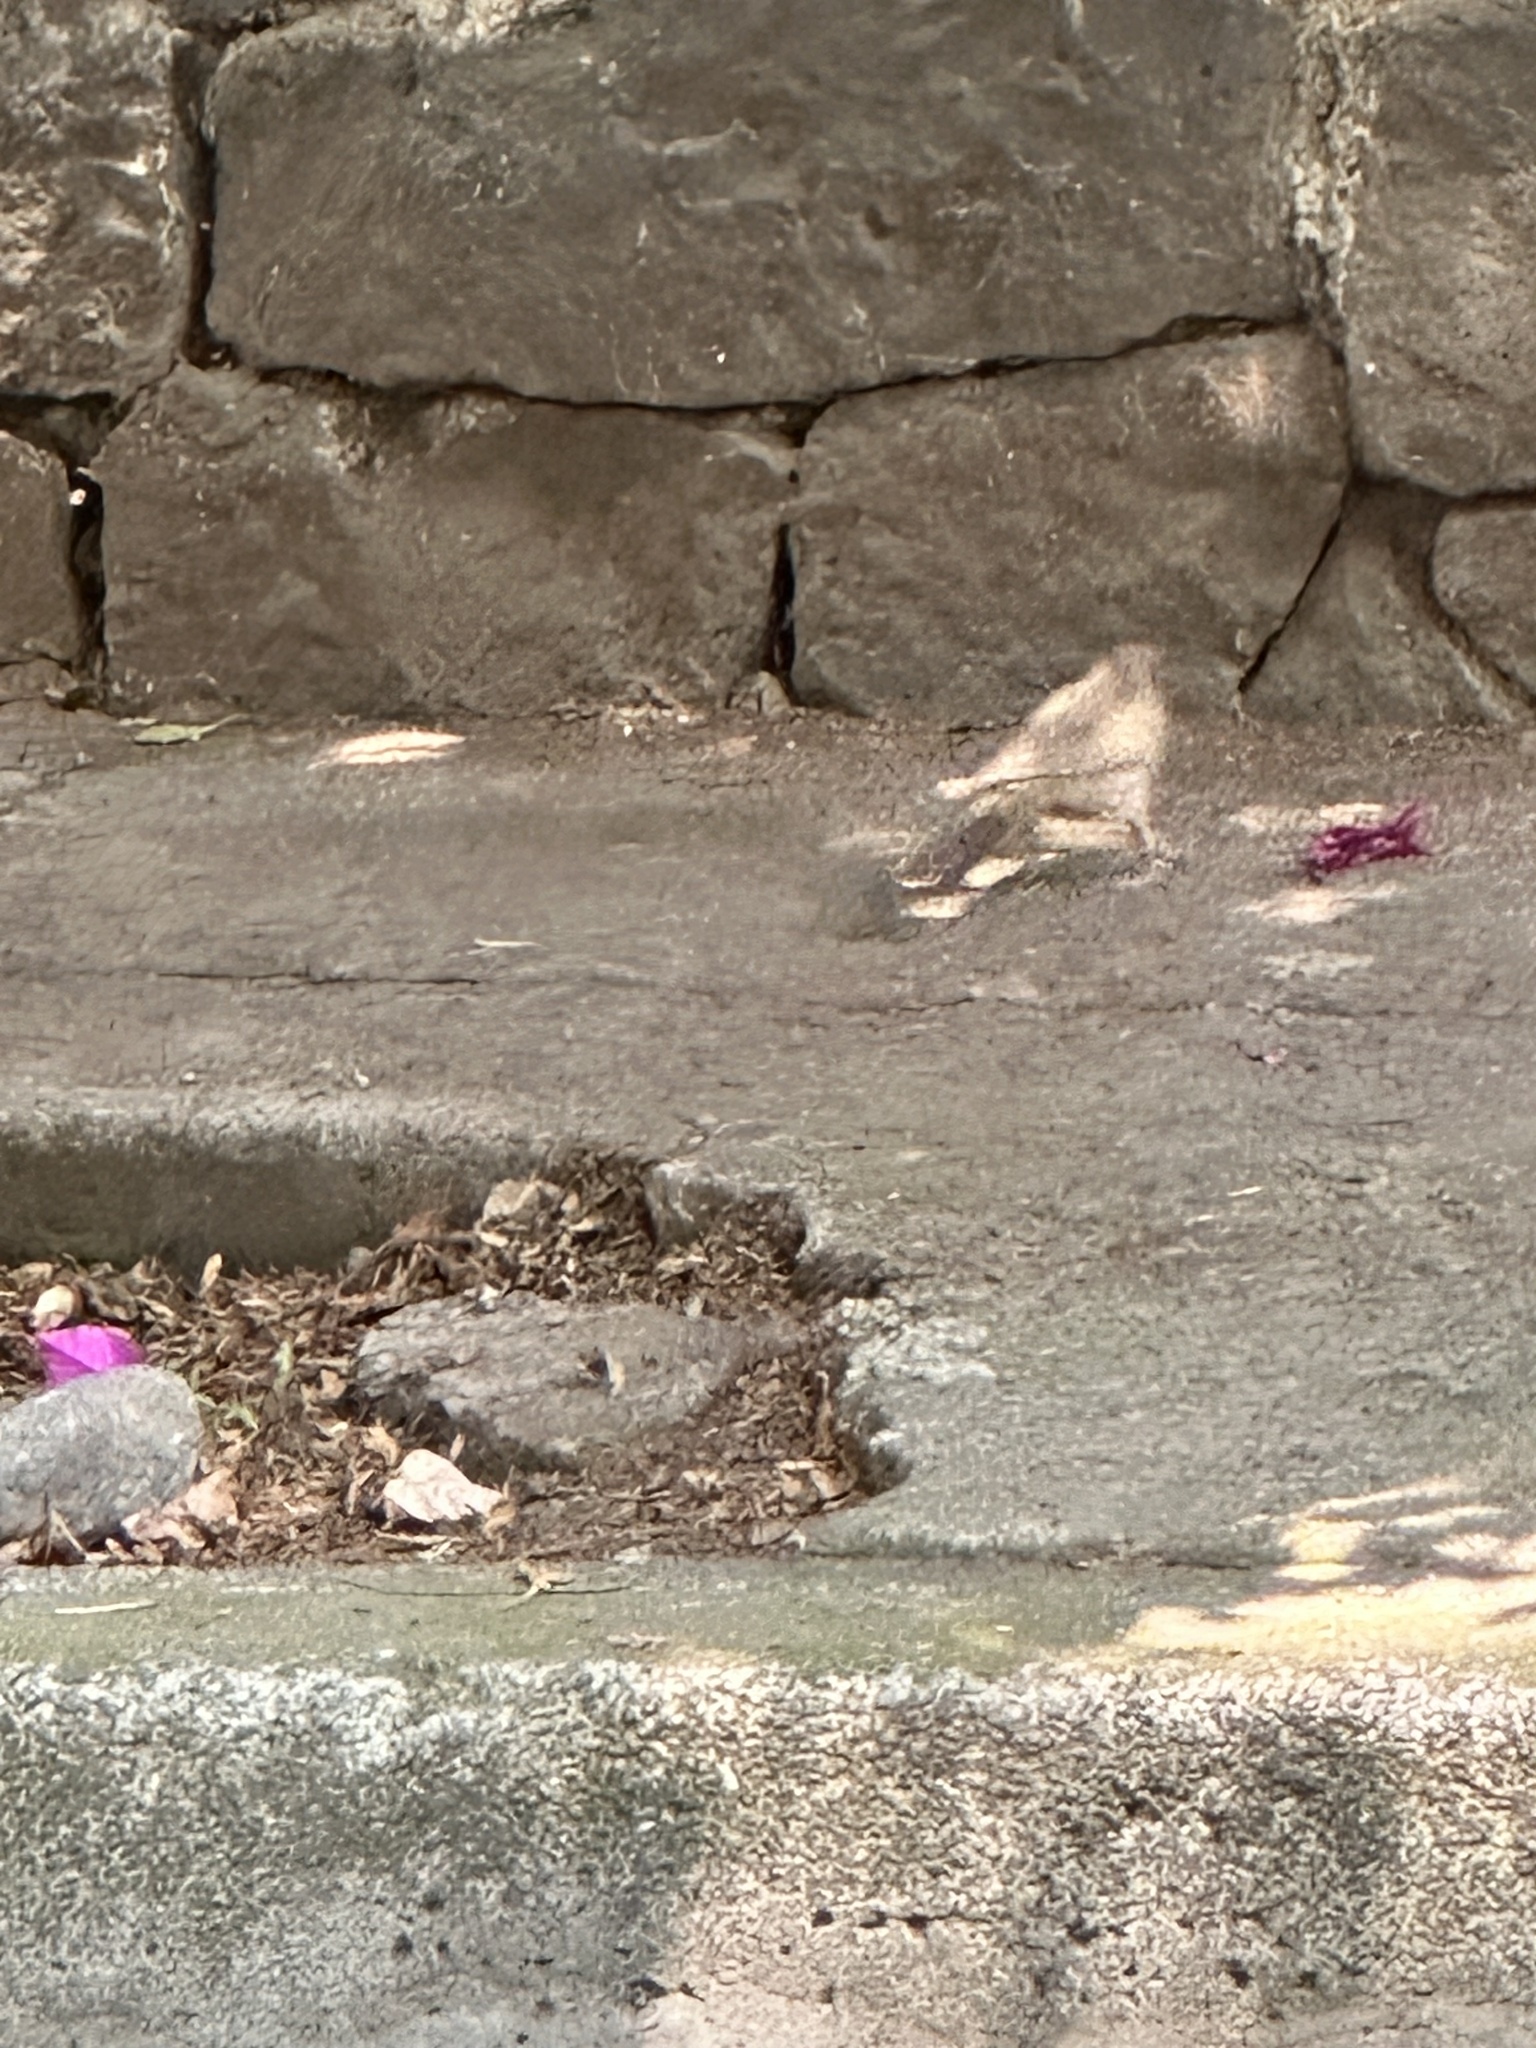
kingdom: Animalia
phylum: Chordata
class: Aves
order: Passeriformes
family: Passerellidae
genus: Melozone
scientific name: Melozone fusca
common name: Canyon towhee
